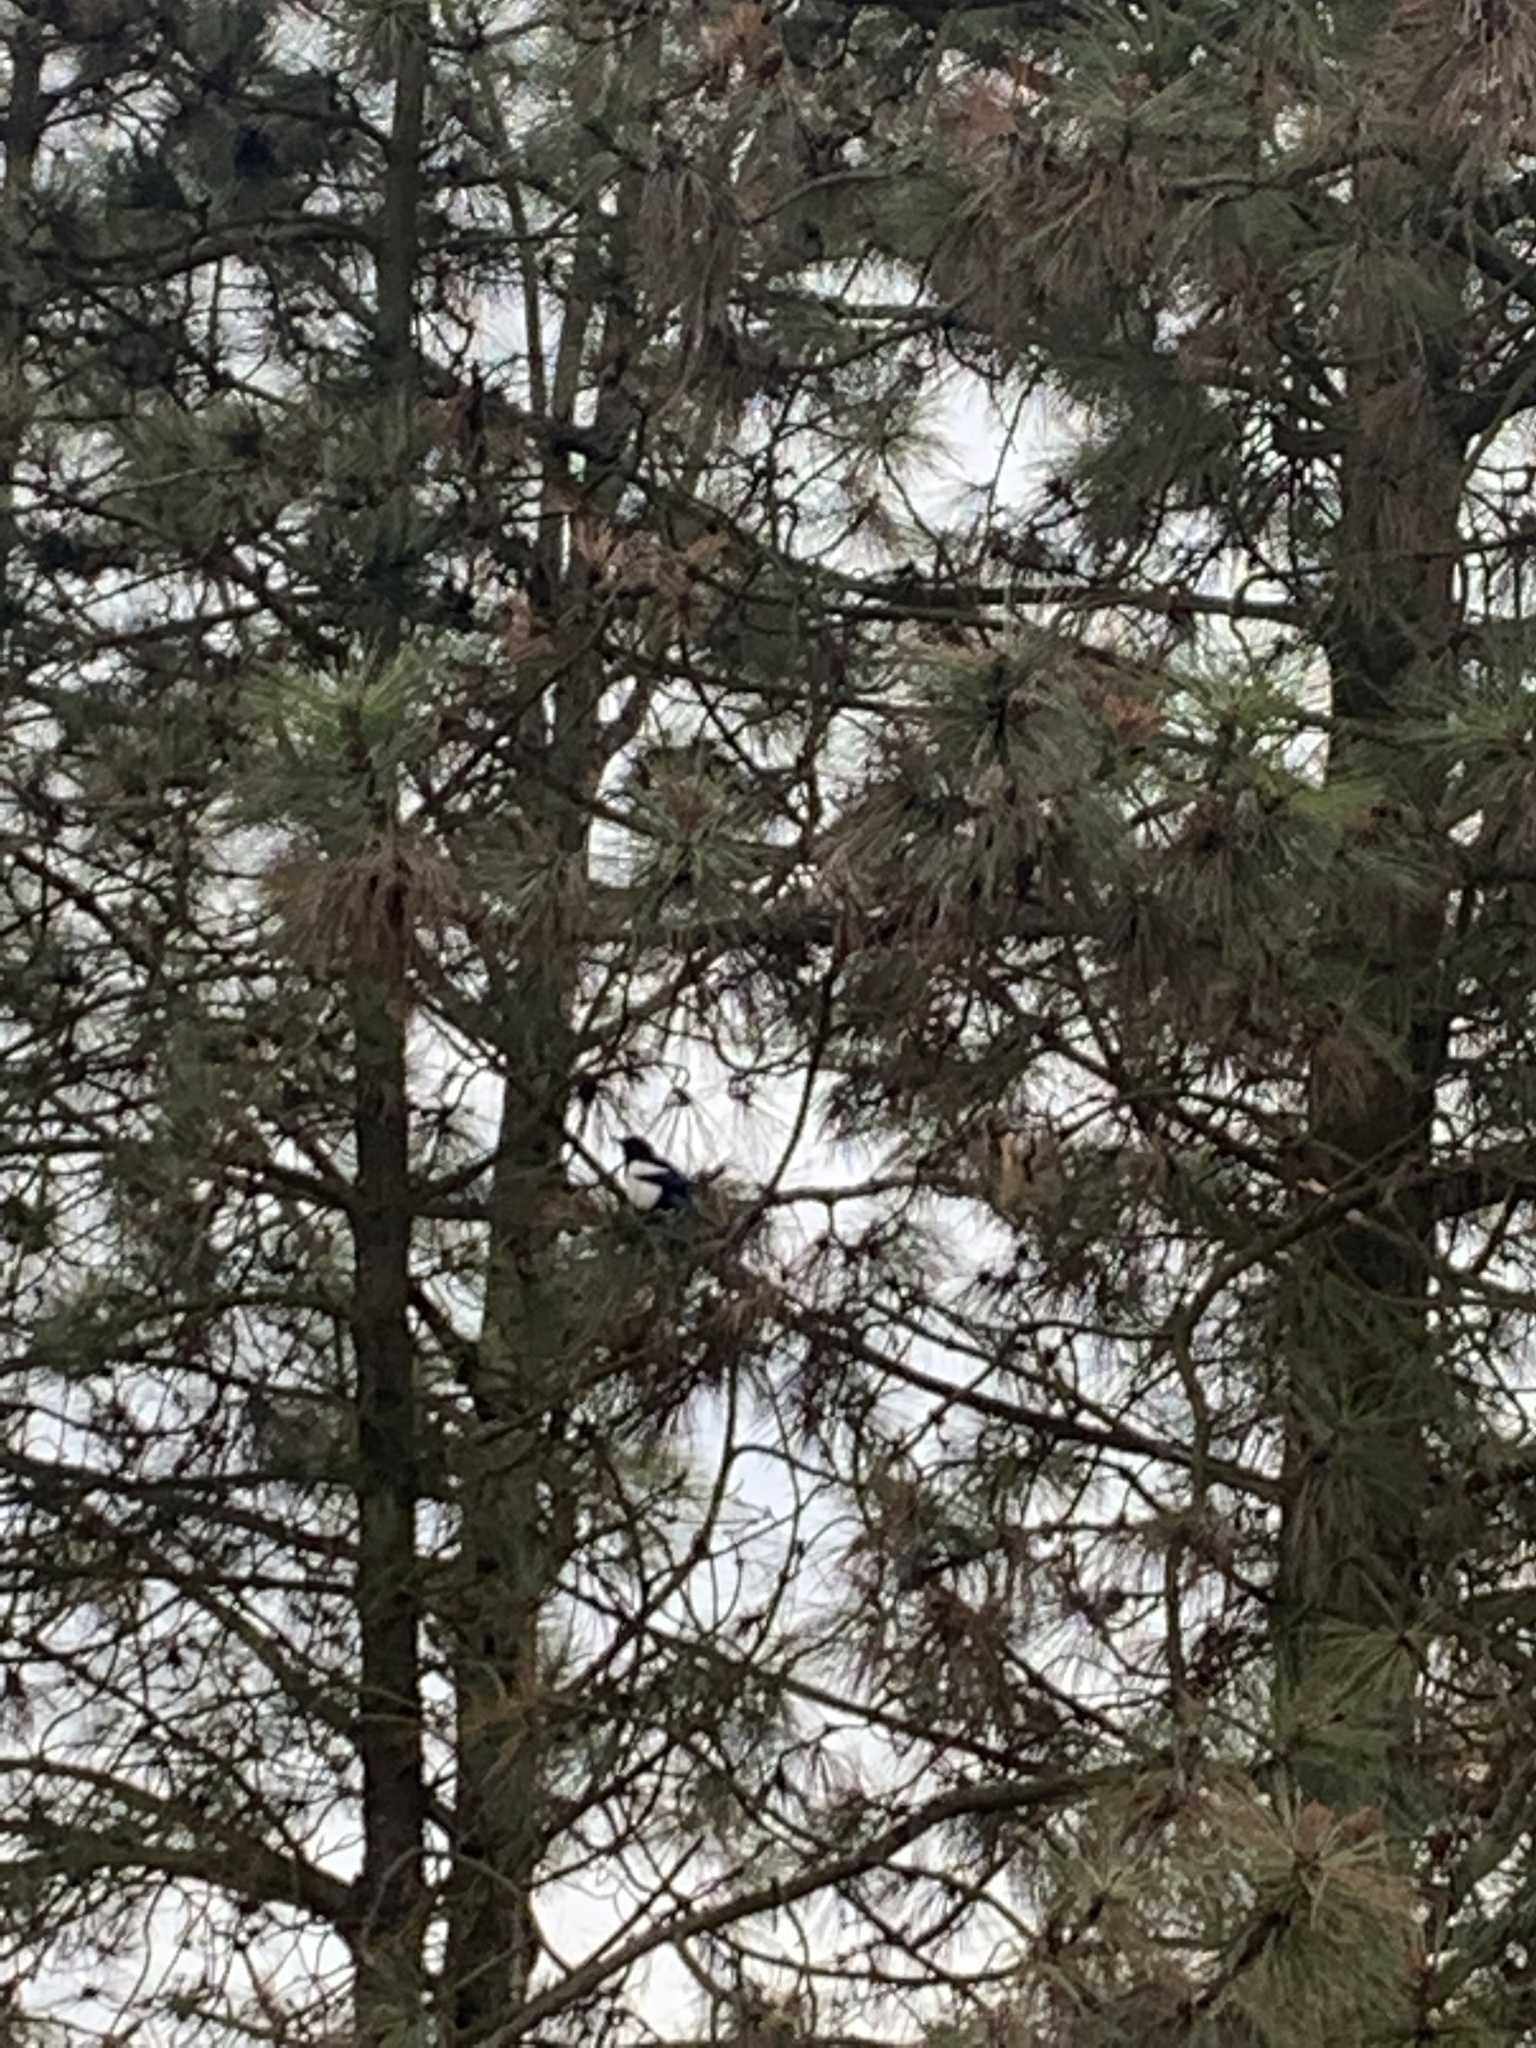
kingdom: Animalia
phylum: Chordata
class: Aves
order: Passeriformes
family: Corvidae
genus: Pica
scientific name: Pica pica
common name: Eurasian magpie
